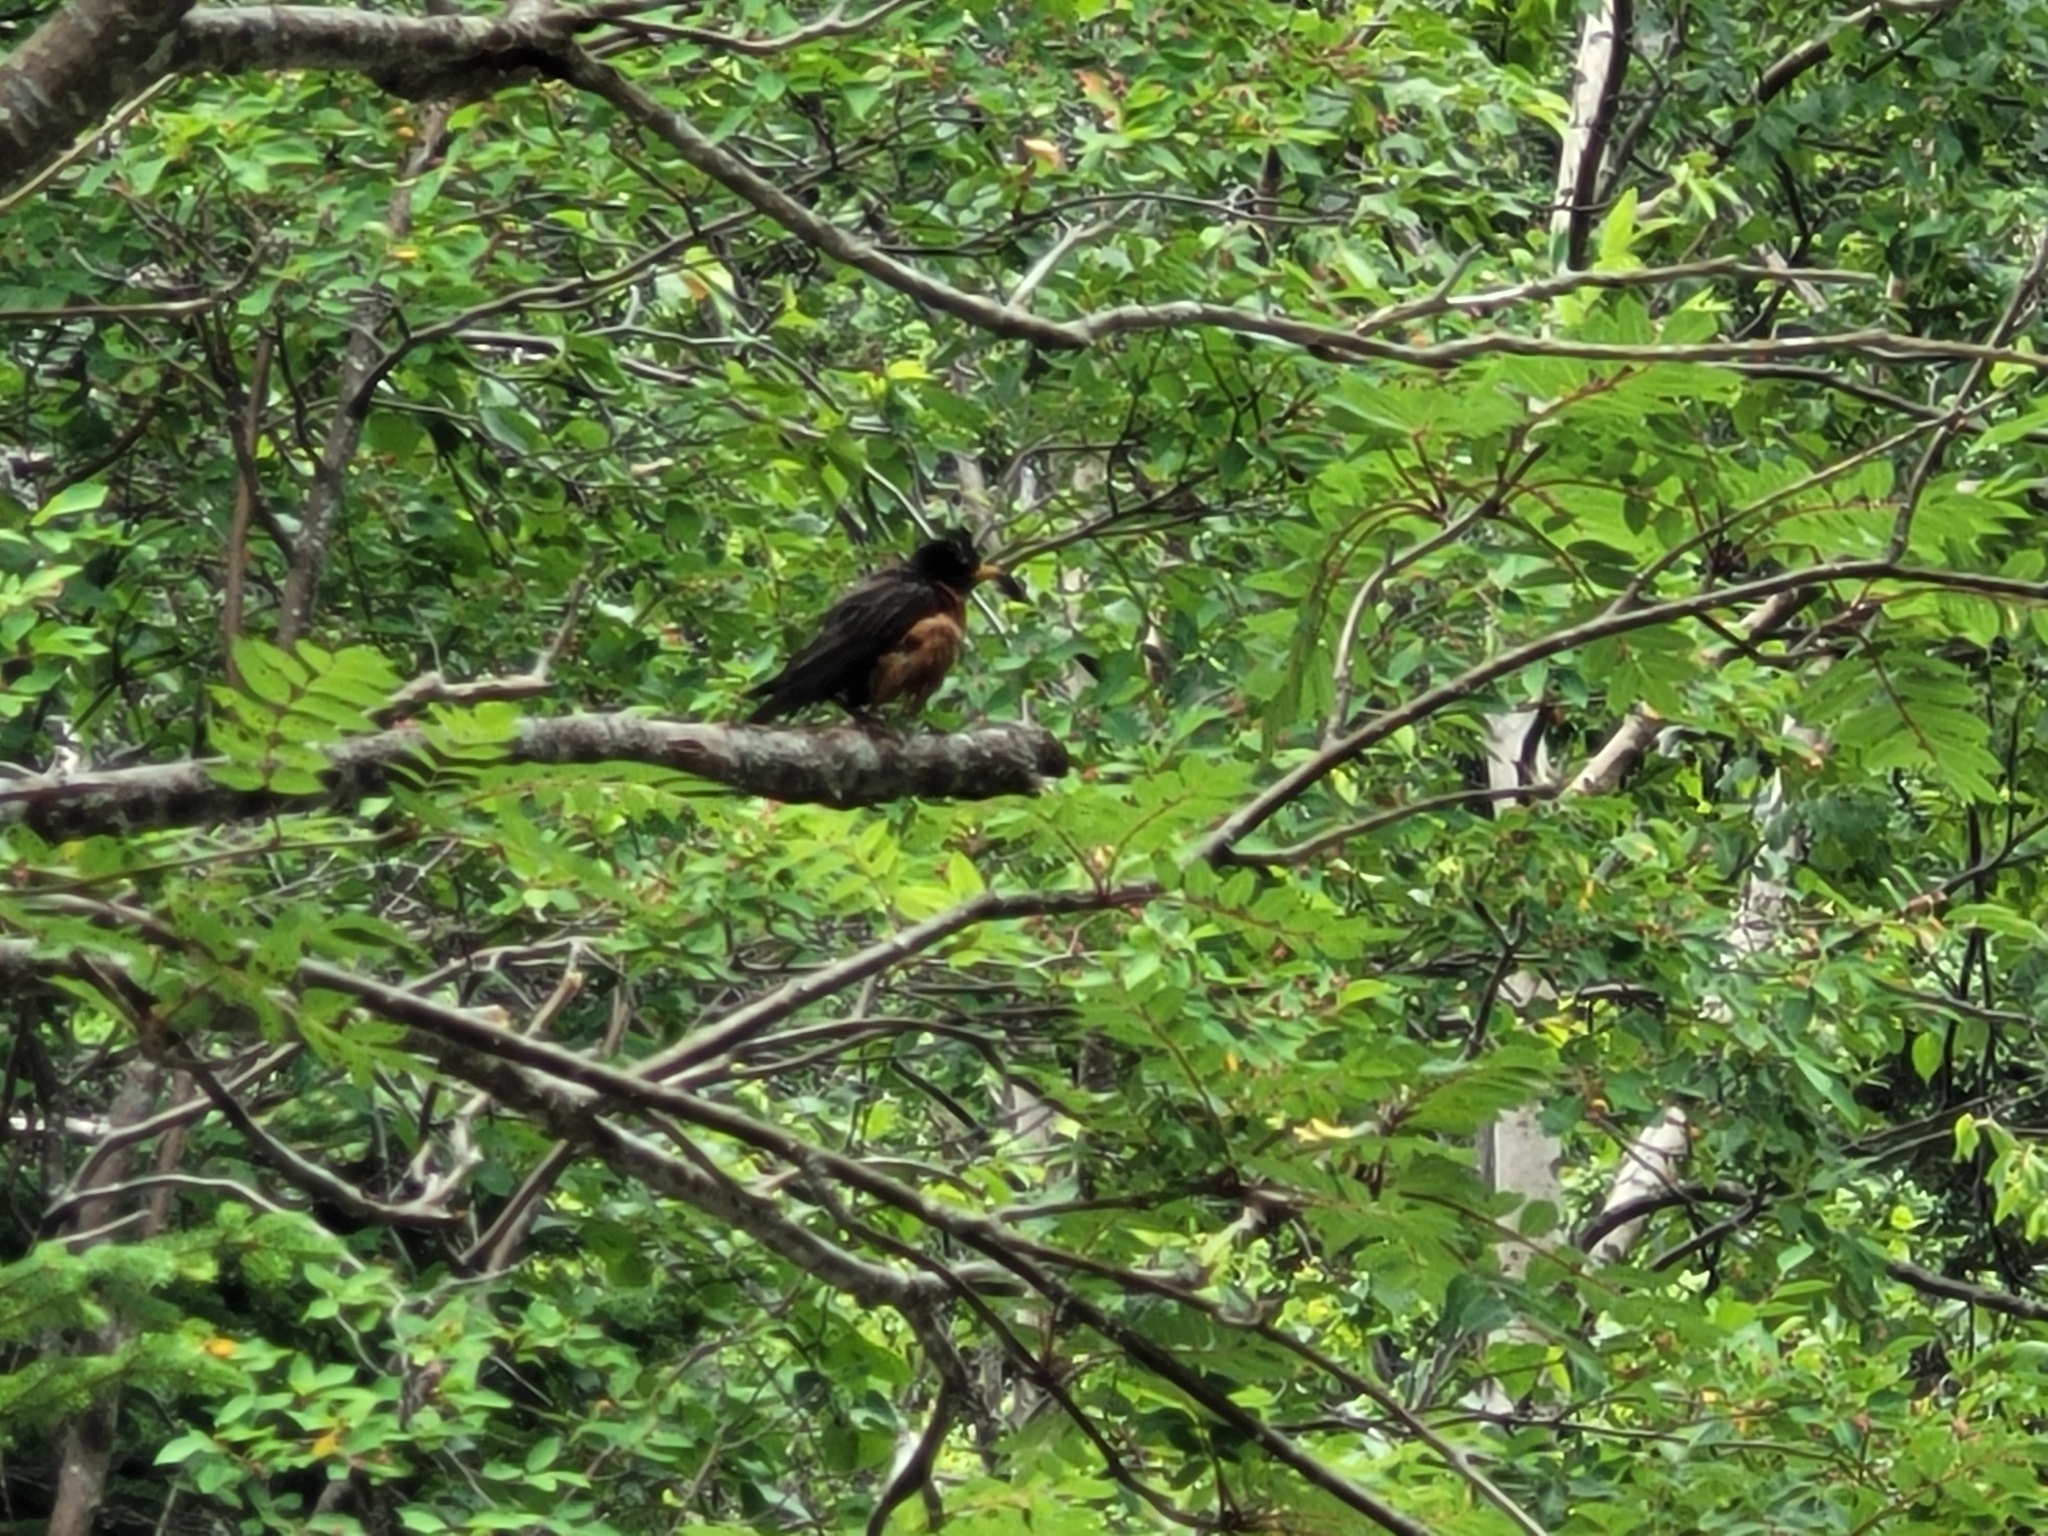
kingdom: Animalia
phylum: Chordata
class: Aves
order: Passeriformes
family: Turdidae
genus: Turdus
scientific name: Turdus migratorius
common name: American robin
